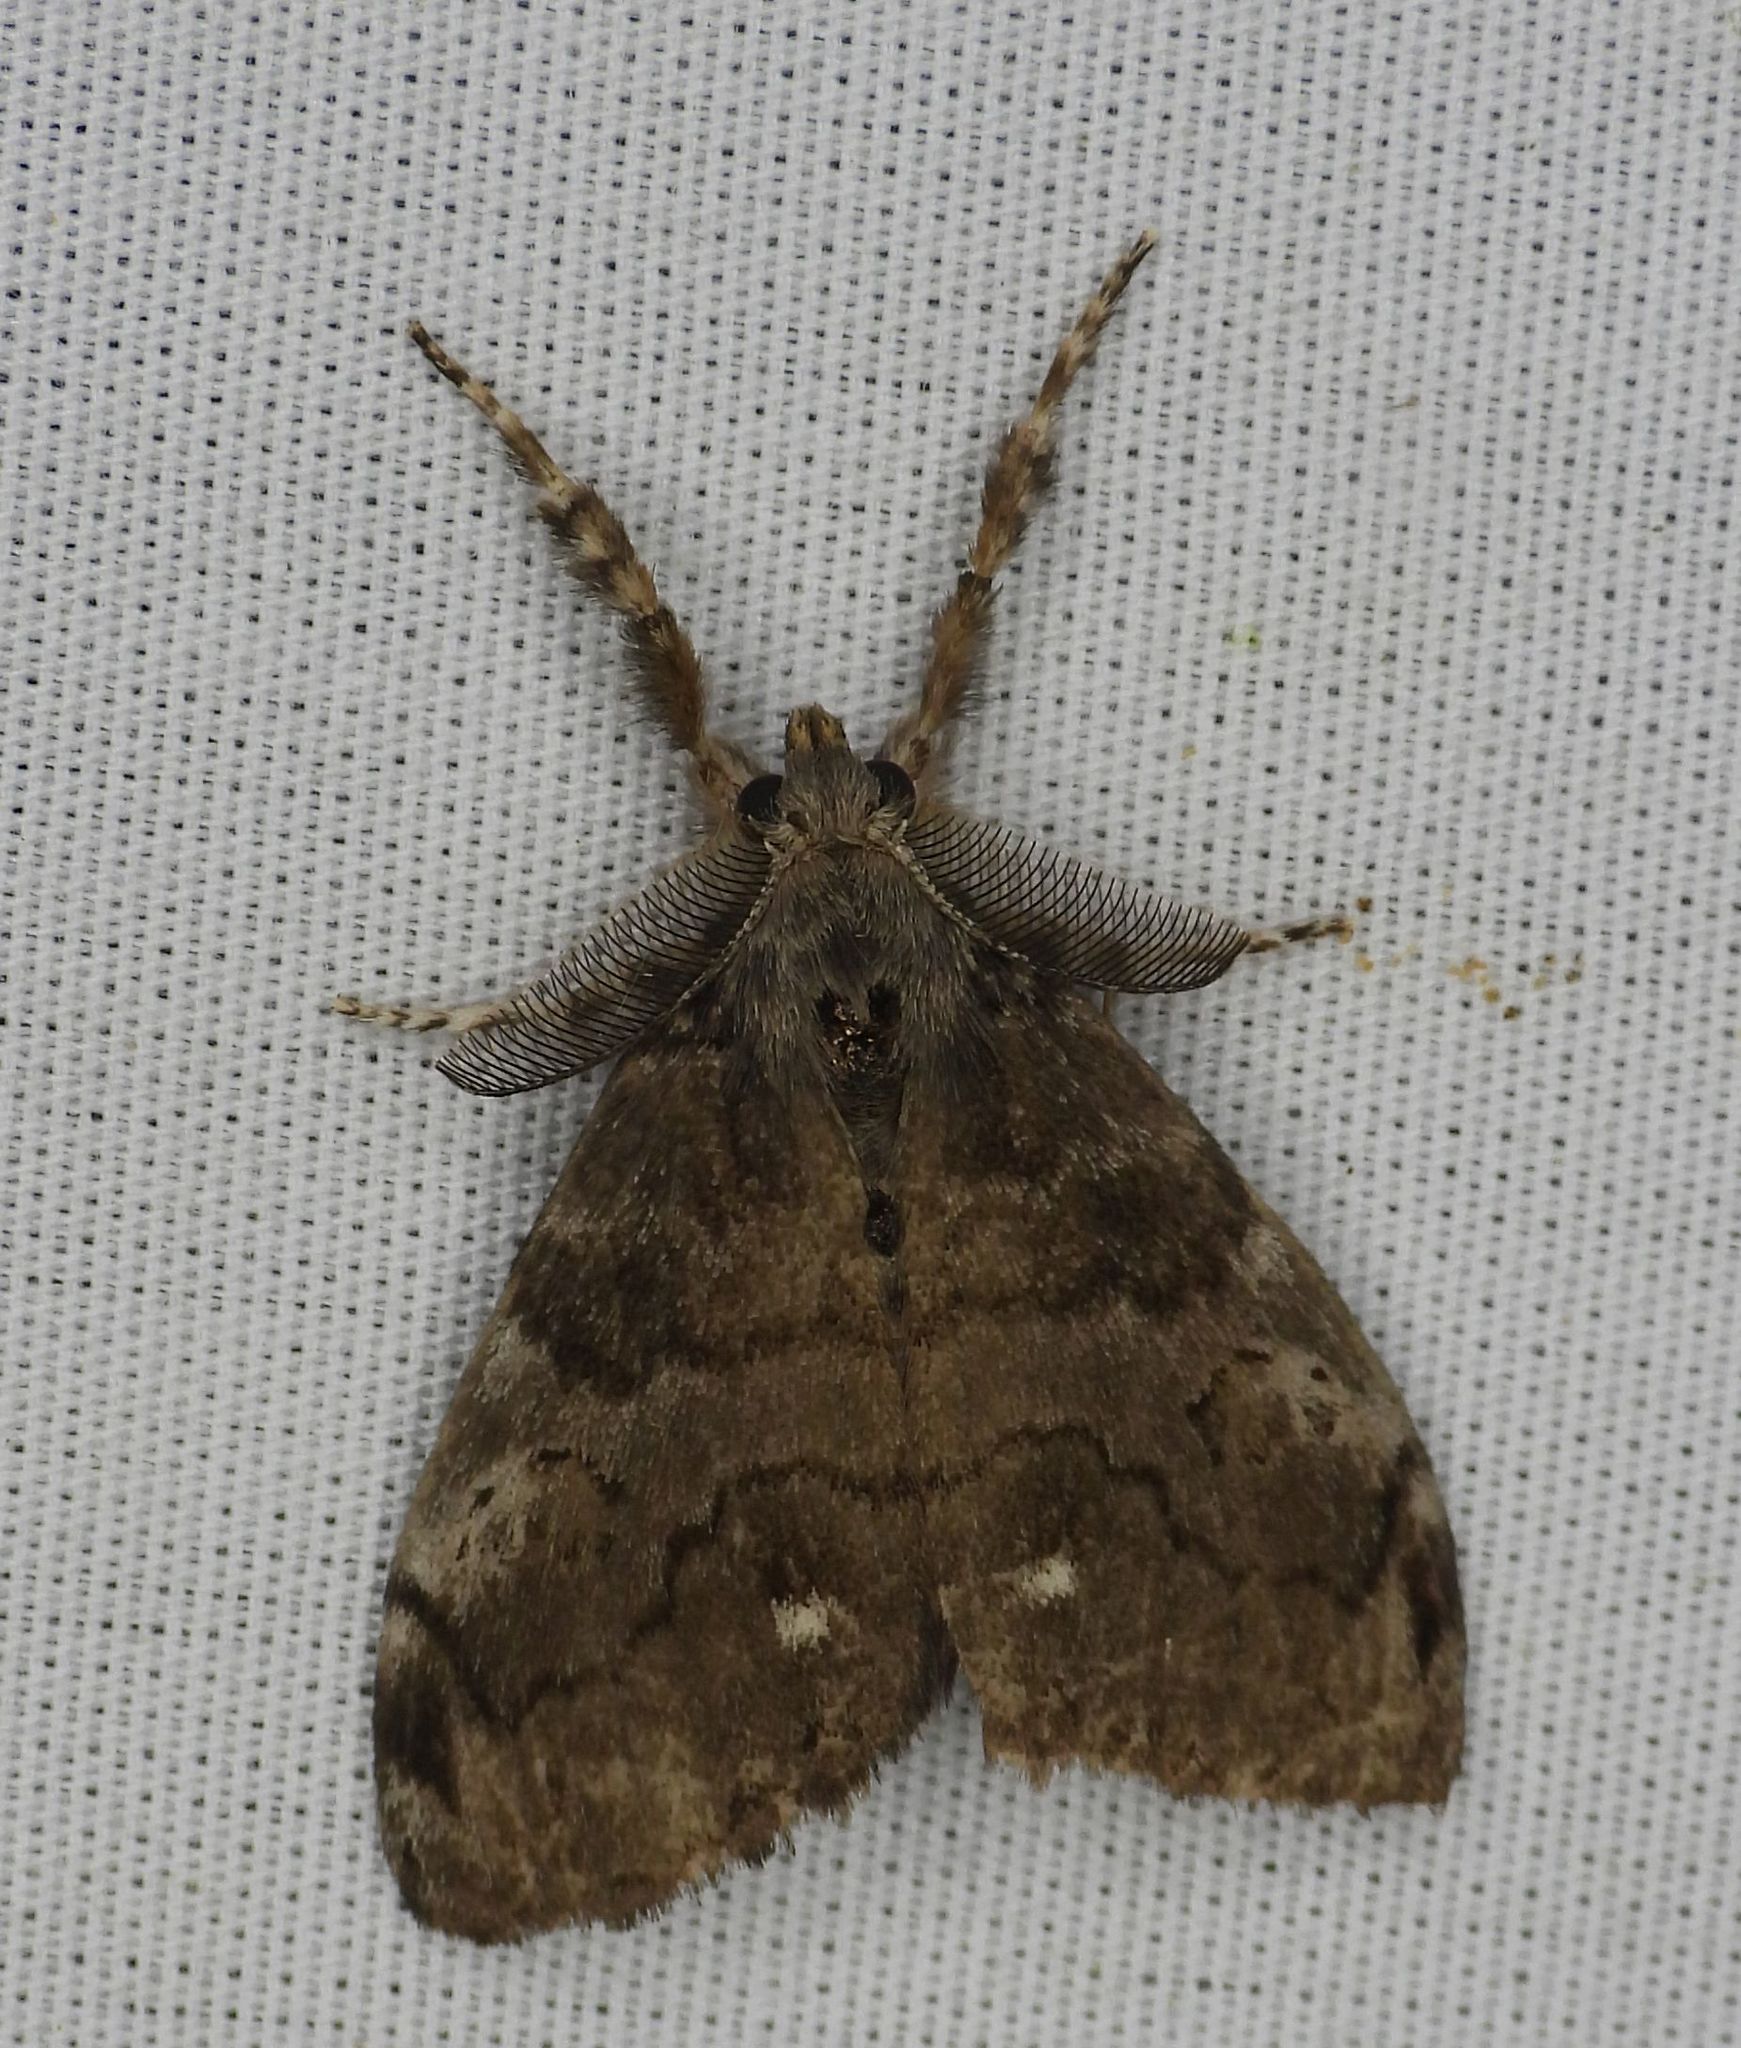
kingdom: Animalia
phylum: Arthropoda
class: Insecta
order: Lepidoptera
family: Erebidae
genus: Orgyia
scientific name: Orgyia leucostigma
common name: White-marked tussock moth
